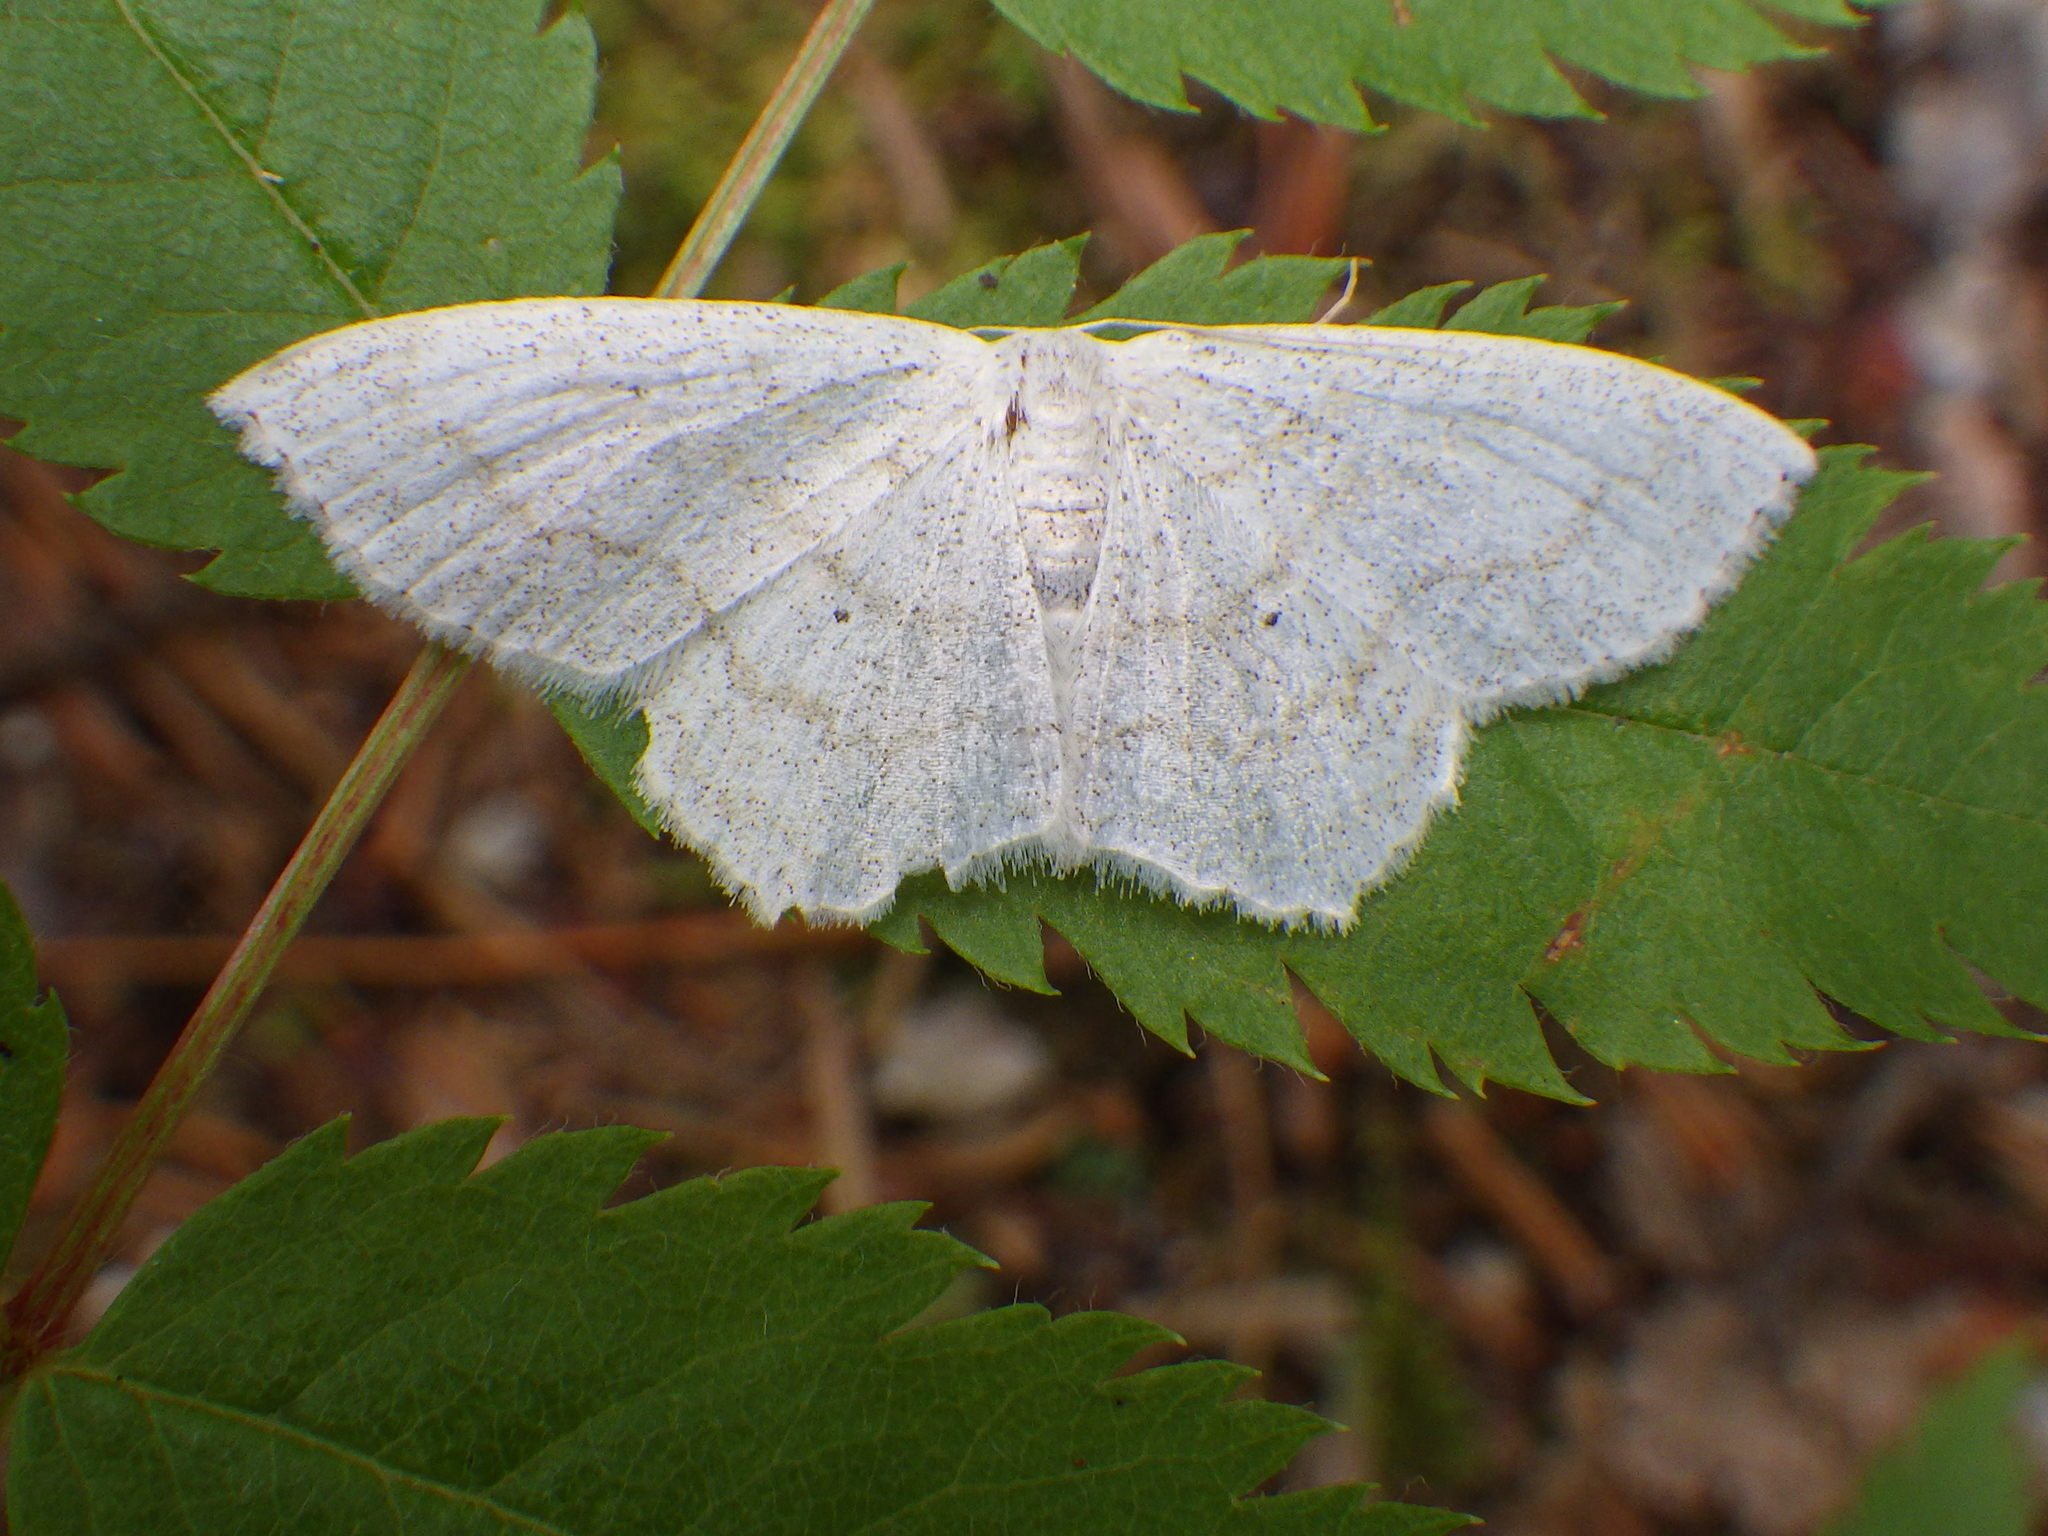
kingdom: Animalia
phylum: Arthropoda
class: Insecta
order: Lepidoptera
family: Geometridae
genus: Scopula
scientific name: Scopula limboundata
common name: Large lace border
